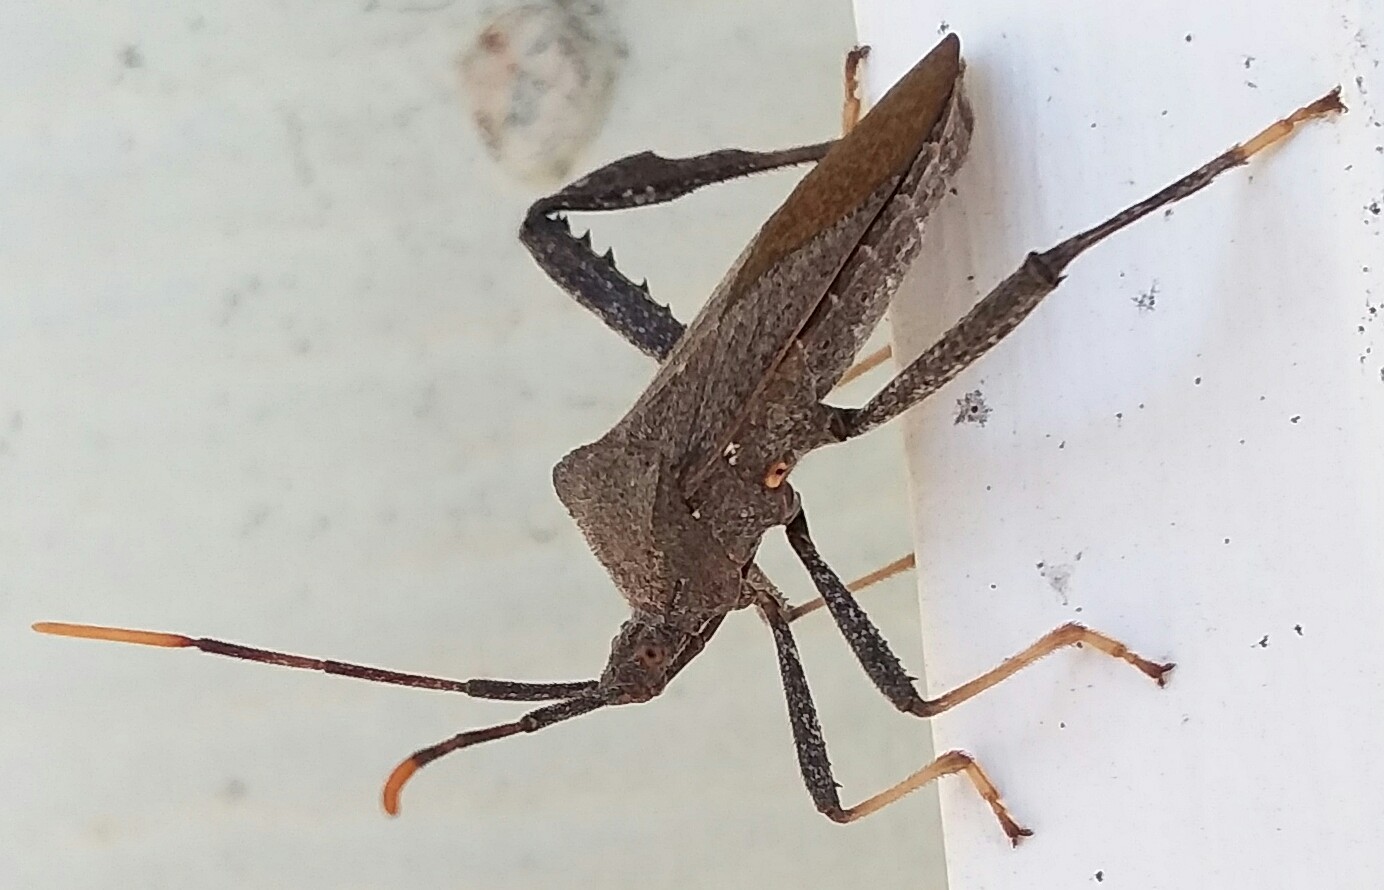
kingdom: Animalia
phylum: Arthropoda
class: Insecta
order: Hemiptera
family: Coreidae
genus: Acanthocephala
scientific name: Acanthocephala terminalis
